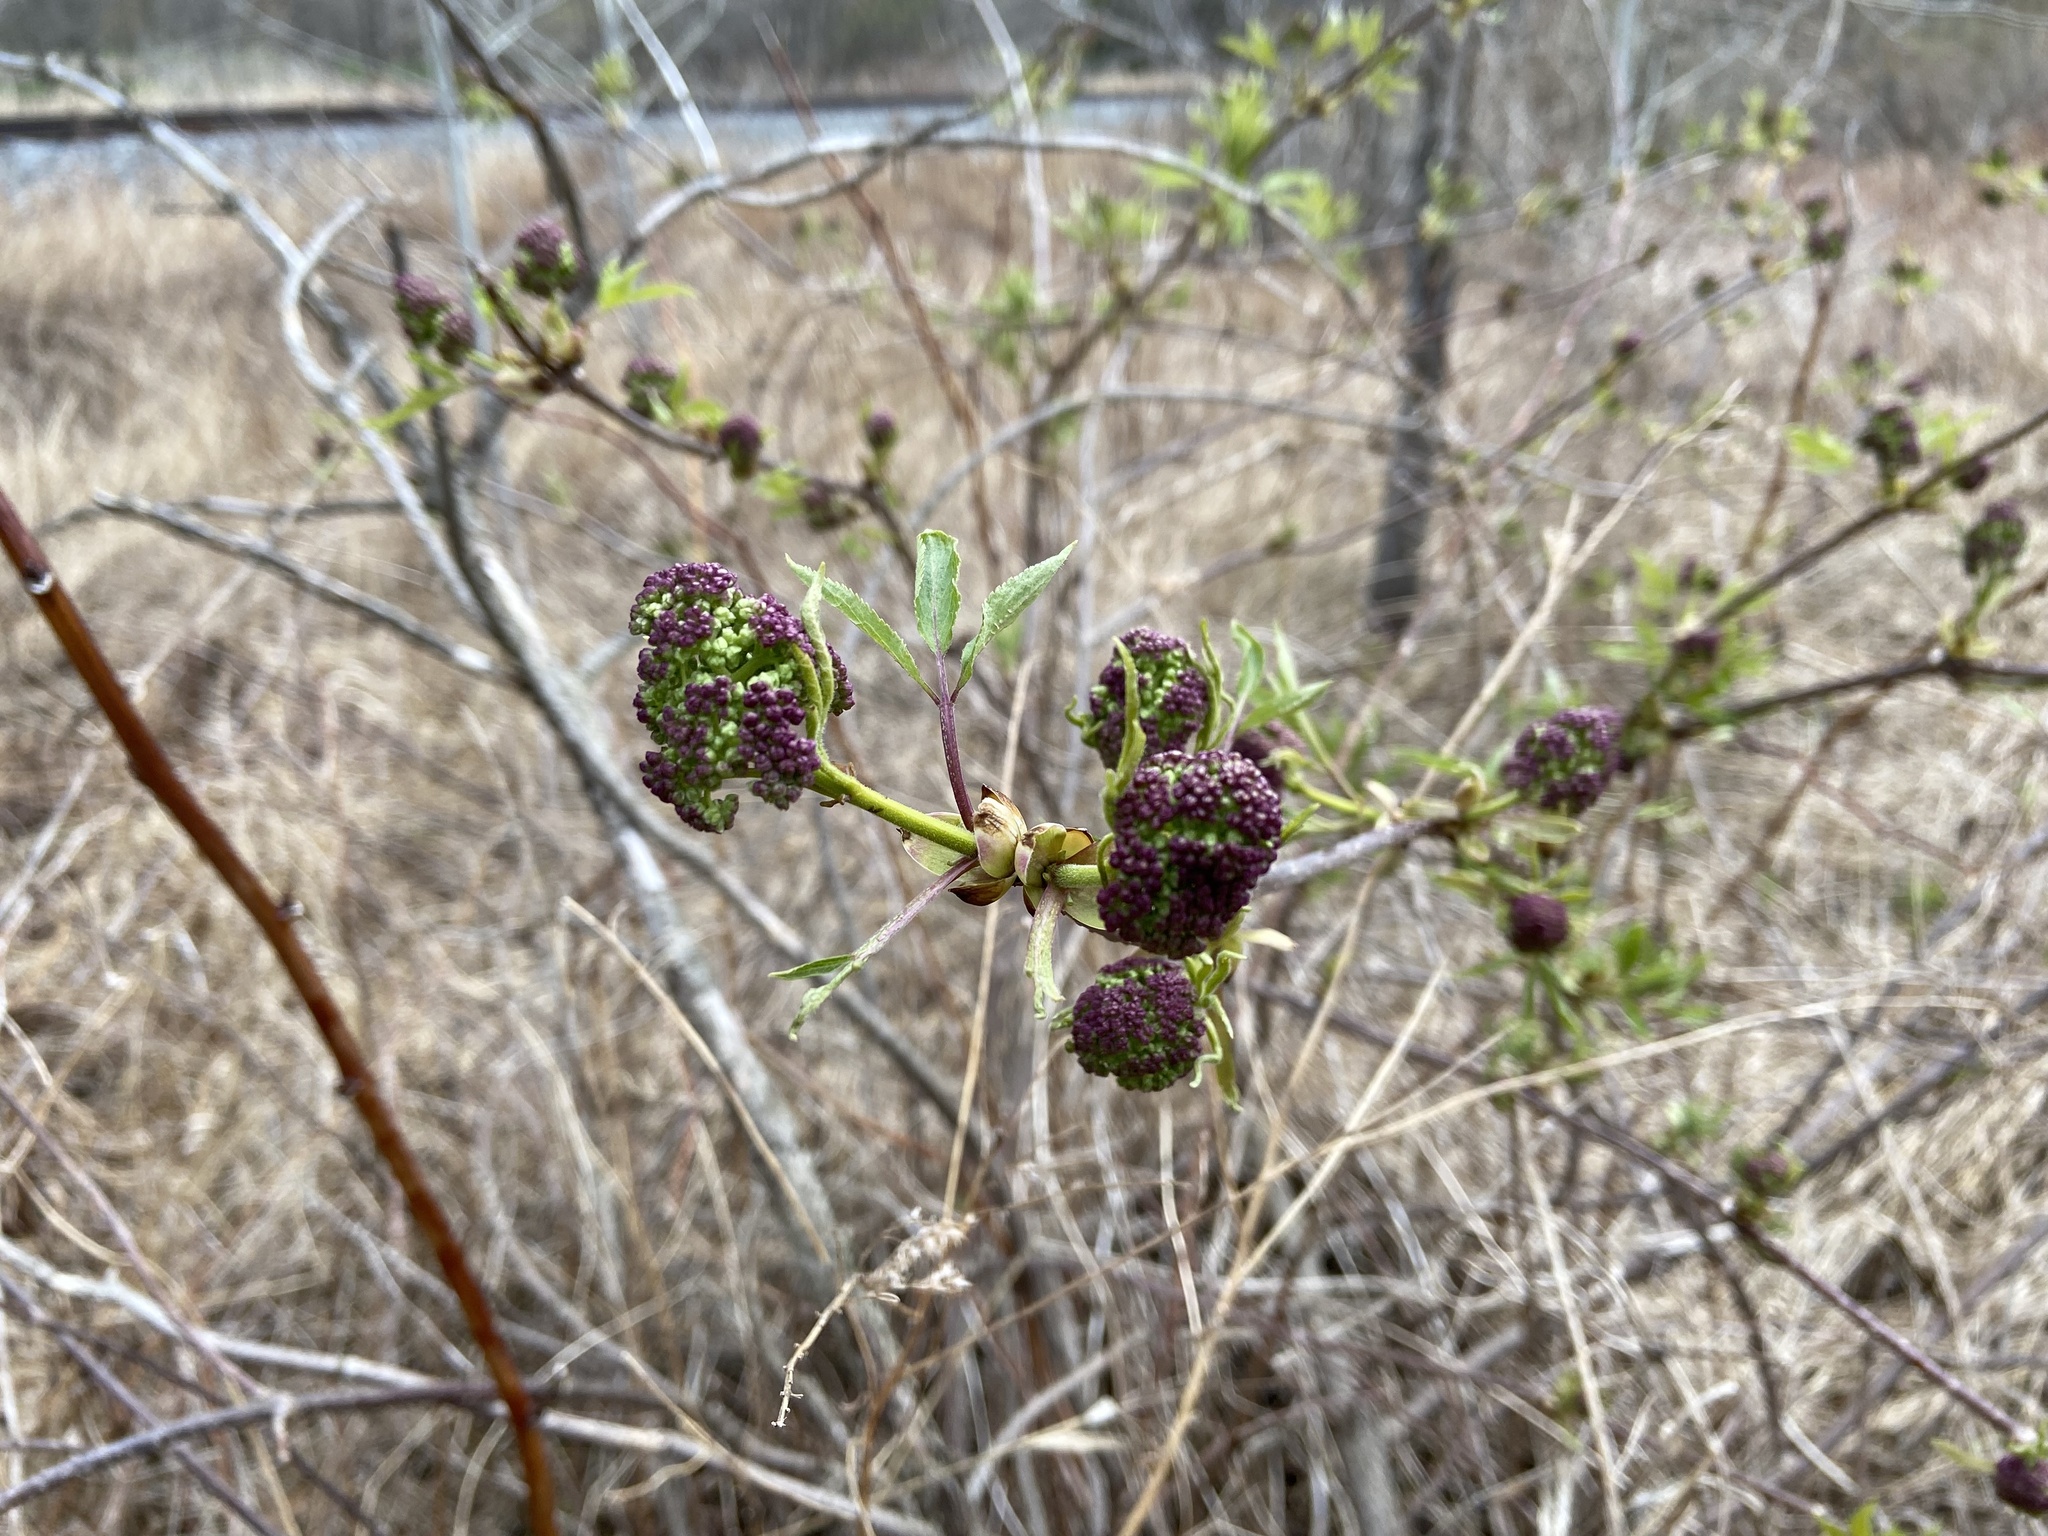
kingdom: Plantae
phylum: Tracheophyta
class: Magnoliopsida
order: Dipsacales
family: Viburnaceae
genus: Sambucus
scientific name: Sambucus racemosa
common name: Red-berried elder
